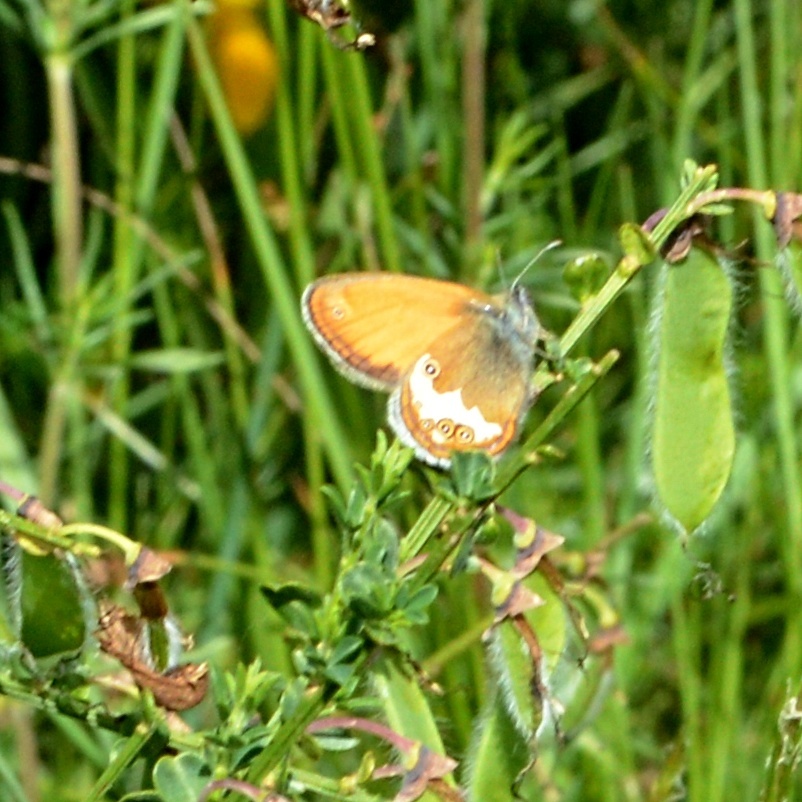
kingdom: Animalia
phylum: Arthropoda
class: Insecta
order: Lepidoptera
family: Nymphalidae
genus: Coenonympha
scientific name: Coenonympha arcania
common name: Pearly heath
